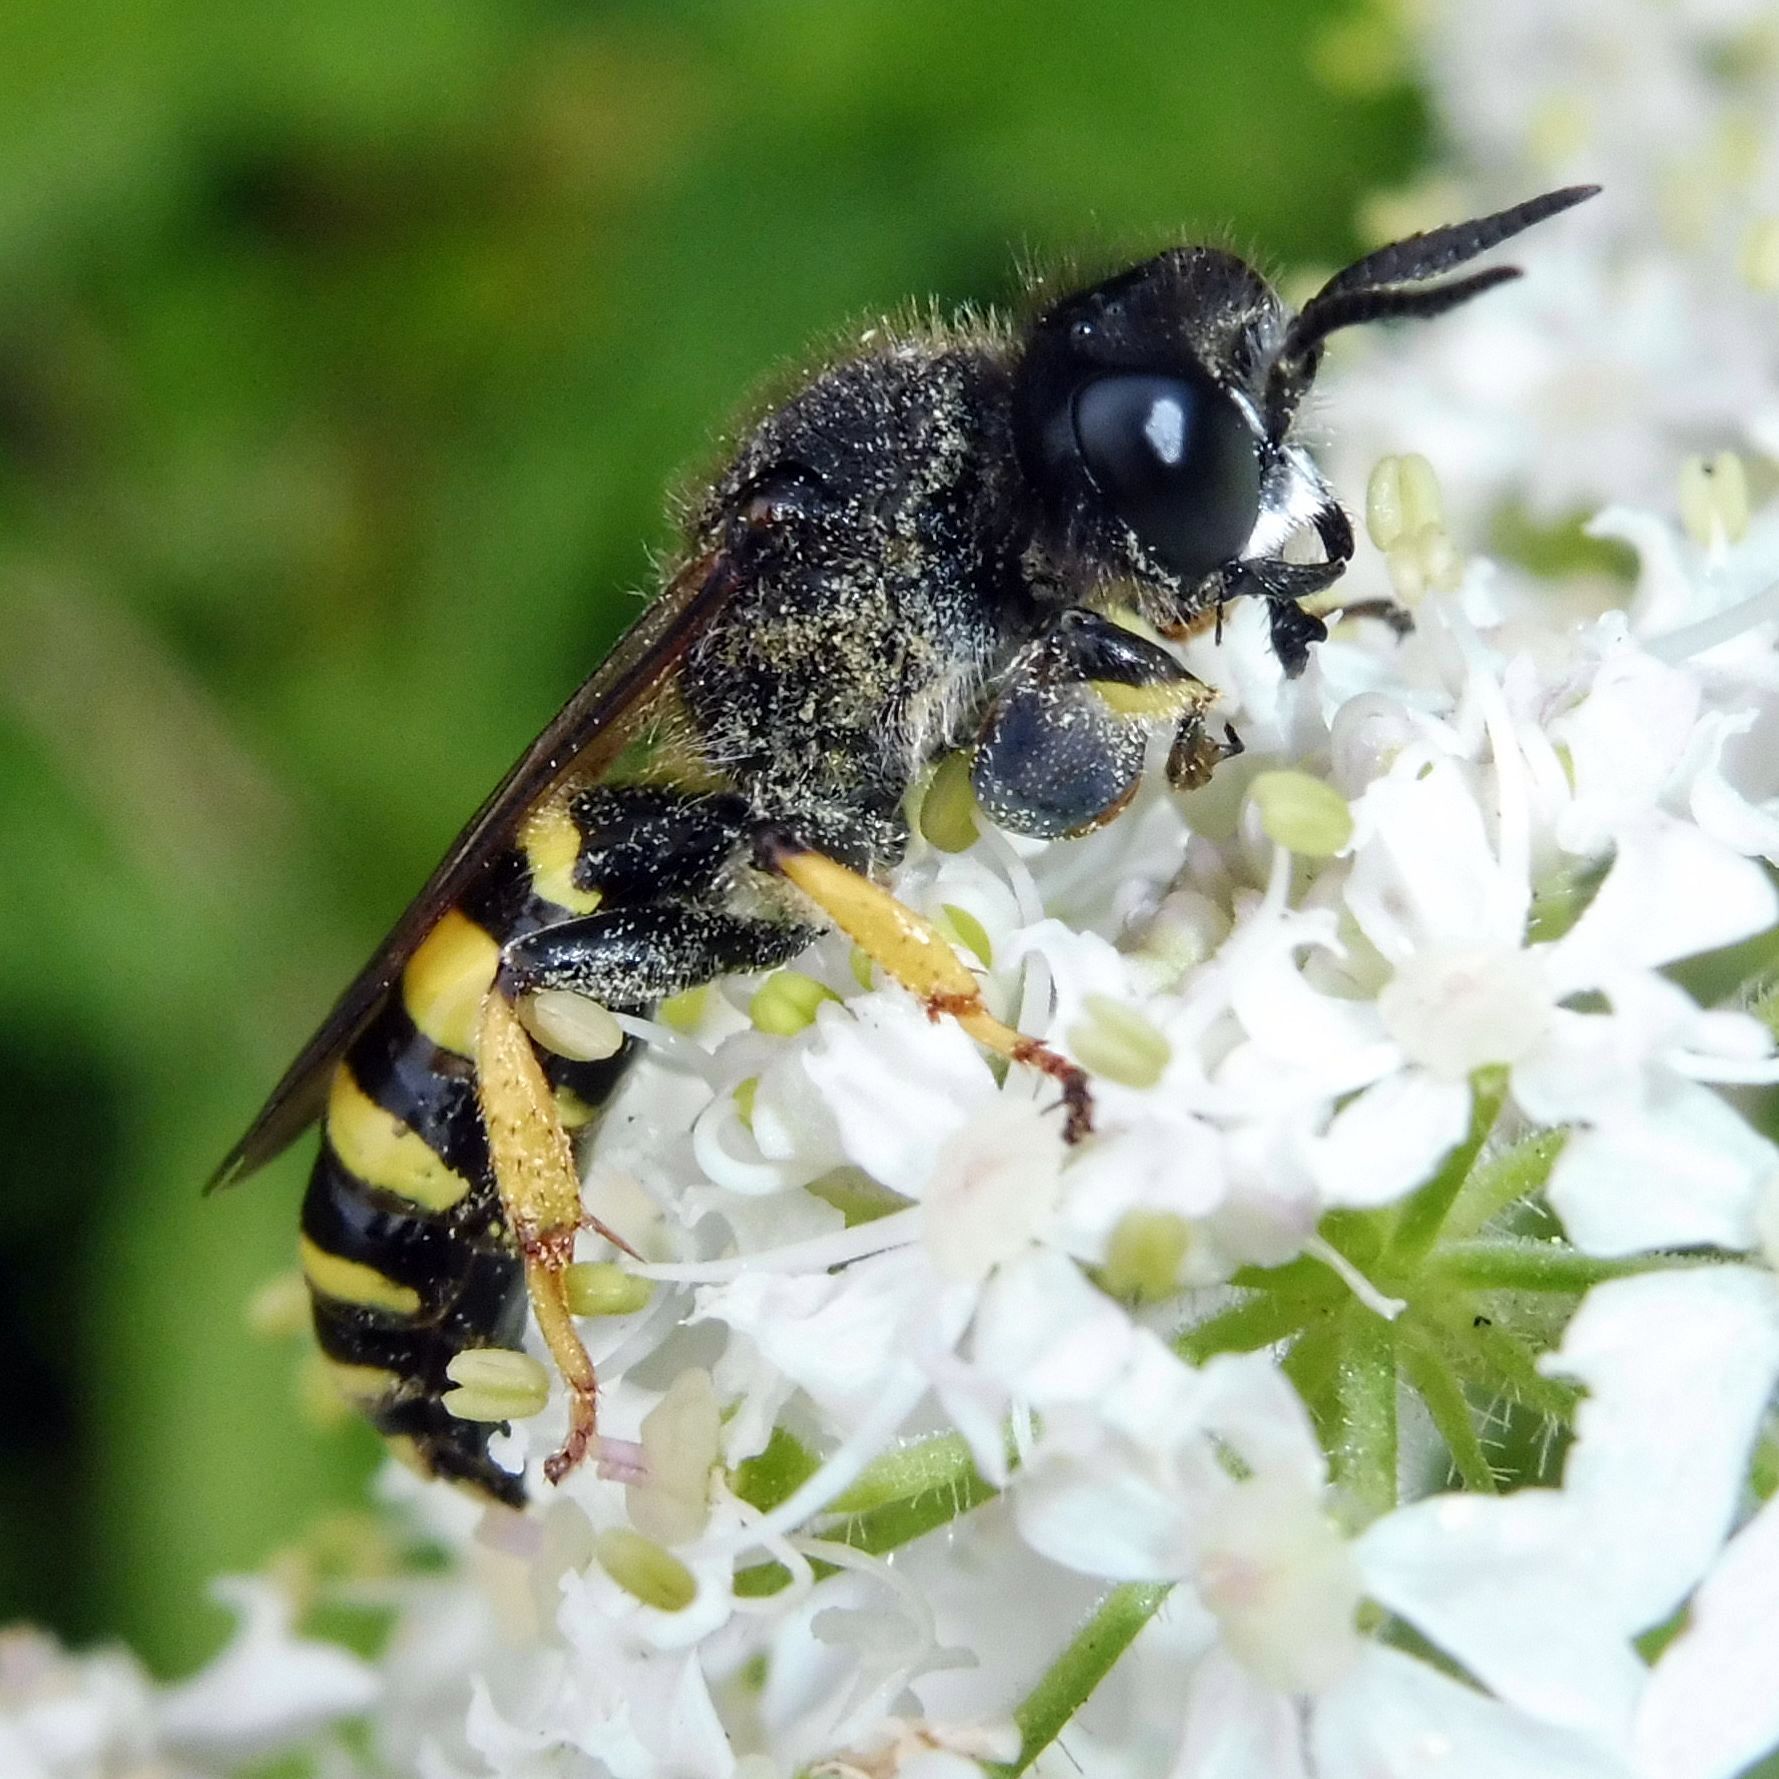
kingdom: Animalia
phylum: Arthropoda
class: Insecta
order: Hymenoptera
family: Crabronidae
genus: Crabro
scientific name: Crabro cribrarius
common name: Slender bodied digger wasp
